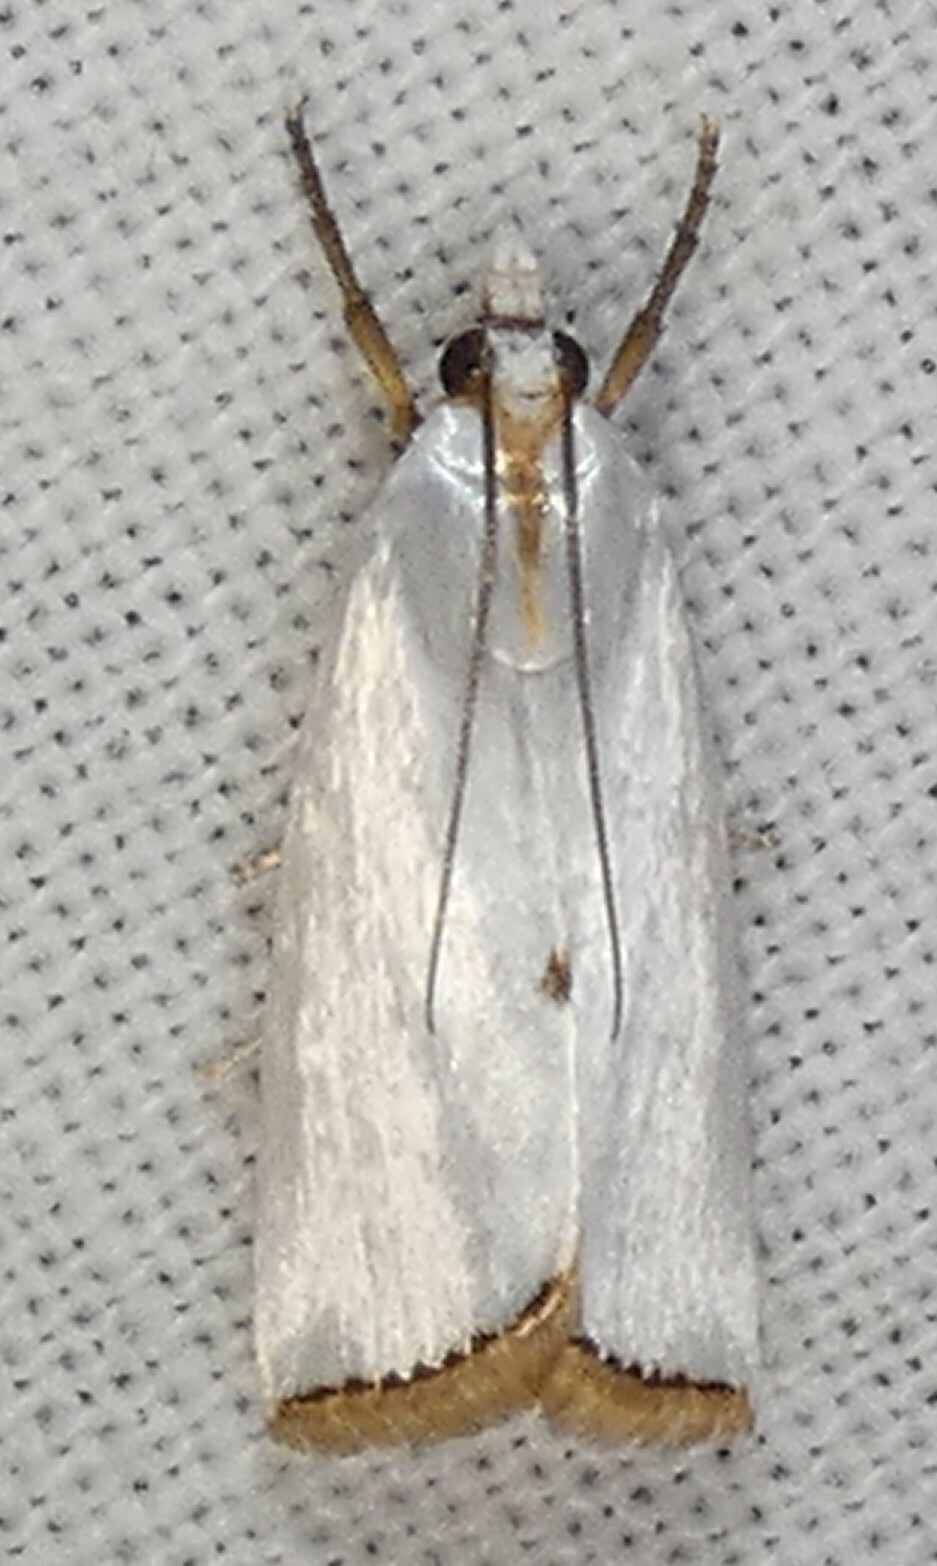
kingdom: Animalia
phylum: Arthropoda
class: Insecta
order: Lepidoptera
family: Crambidae
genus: Argyria
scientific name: Argyria nivalis
